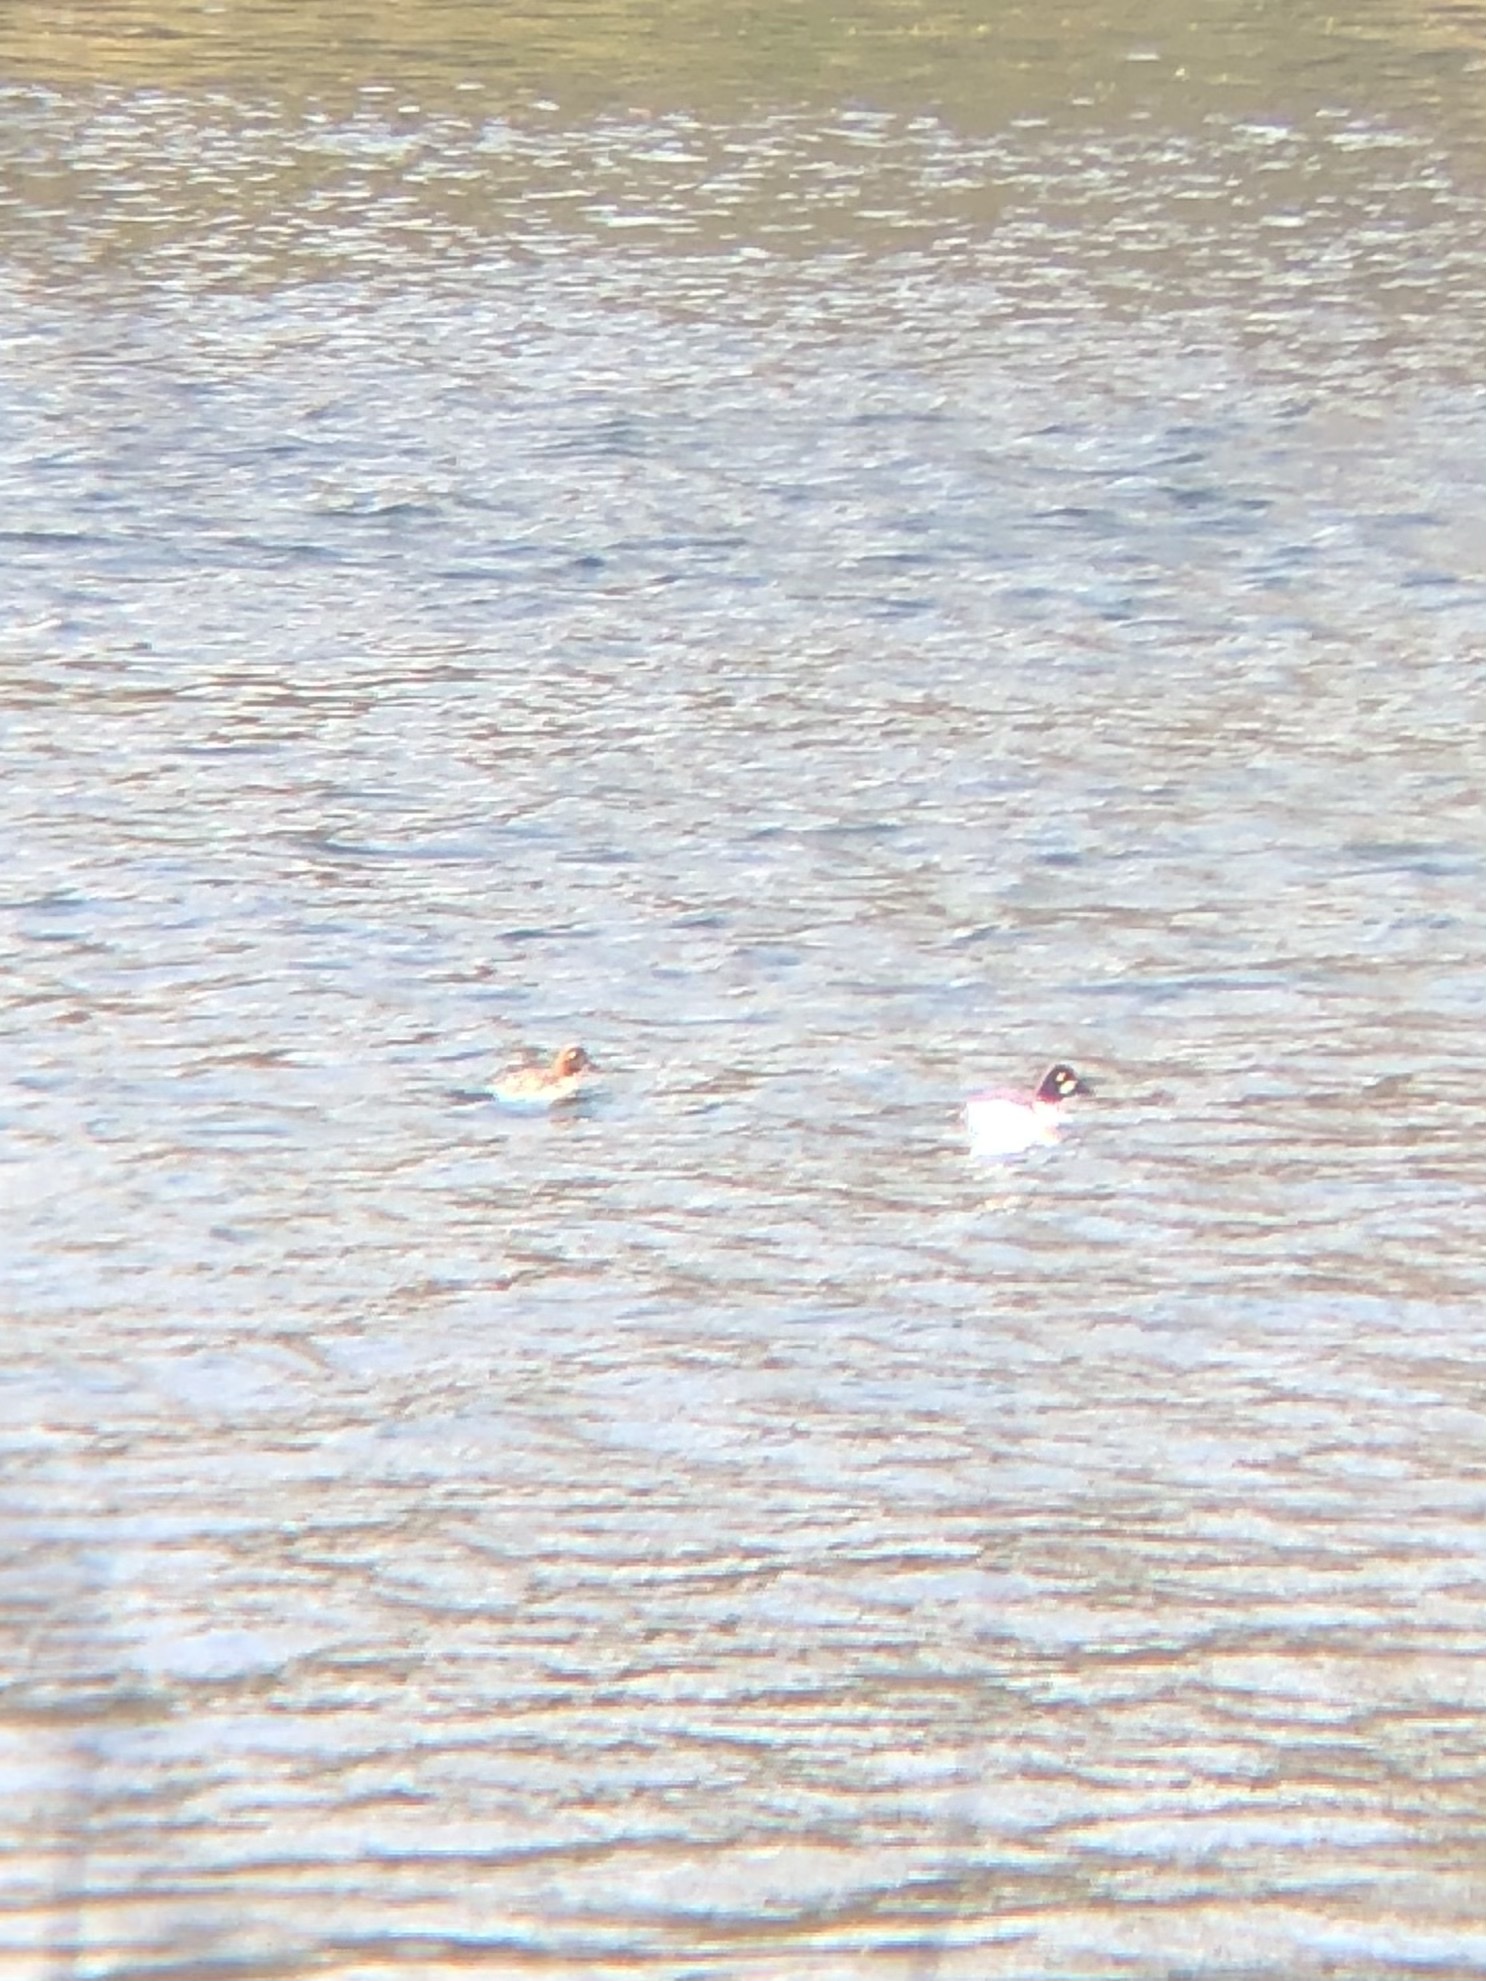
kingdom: Animalia
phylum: Chordata
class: Aves
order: Anseriformes
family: Anatidae
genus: Bucephala
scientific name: Bucephala clangula
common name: Common goldeneye
